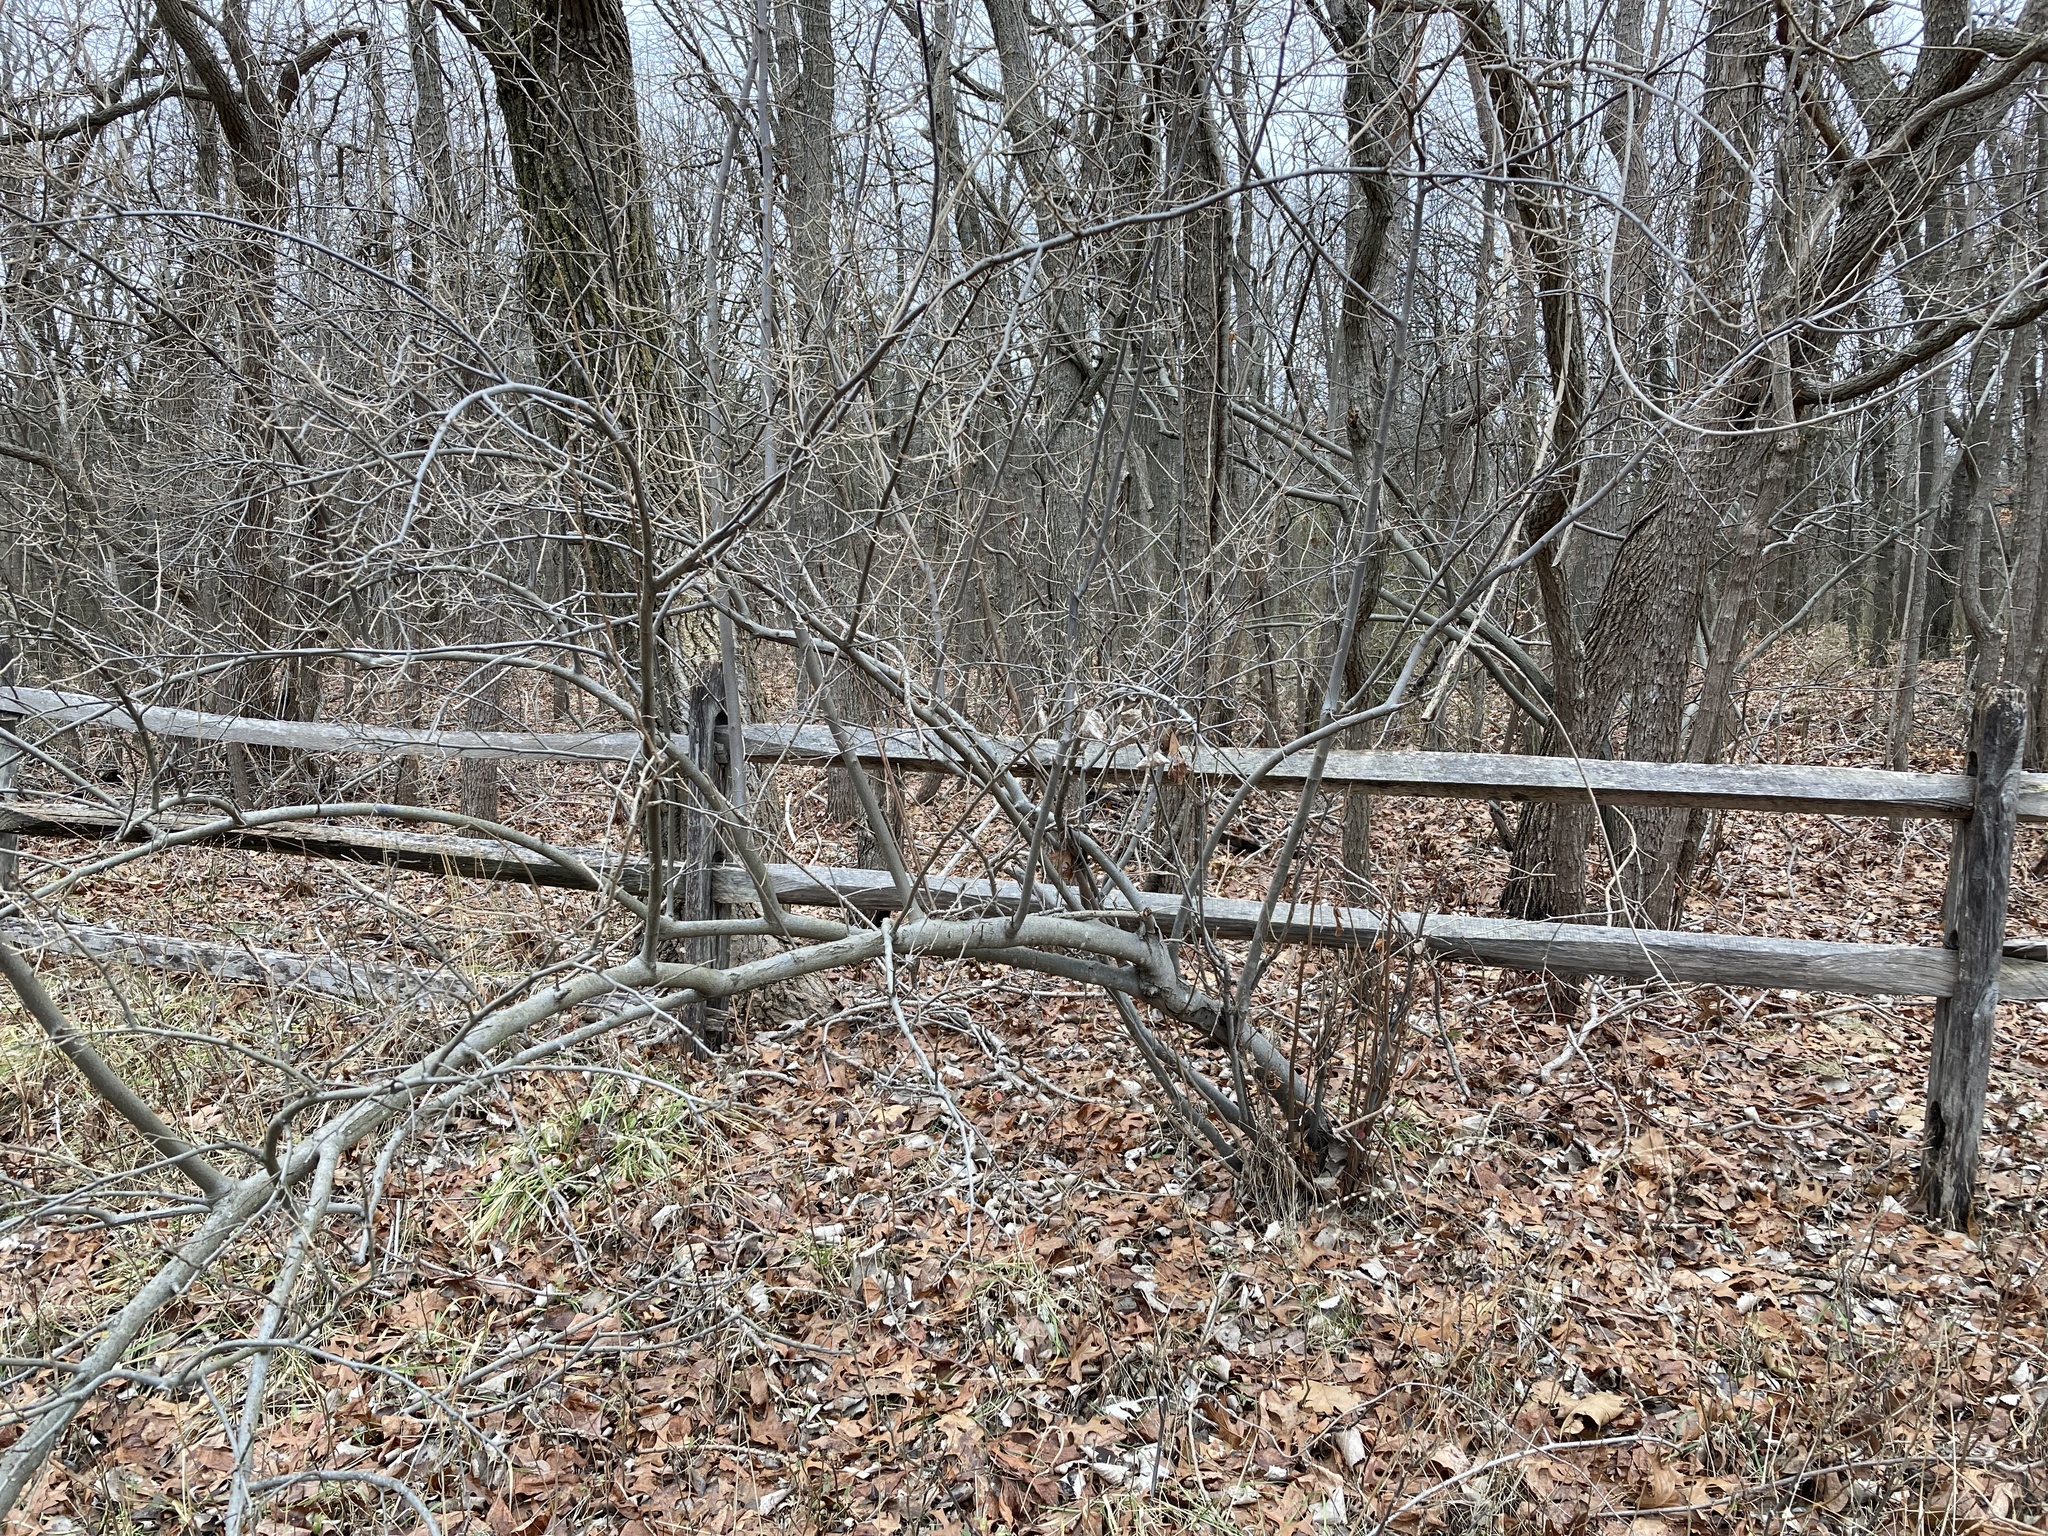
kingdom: Plantae
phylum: Tracheophyta
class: Magnoliopsida
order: Rosales
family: Elaeagnaceae
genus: Elaeagnus
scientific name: Elaeagnus umbellata
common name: Autumn olive
